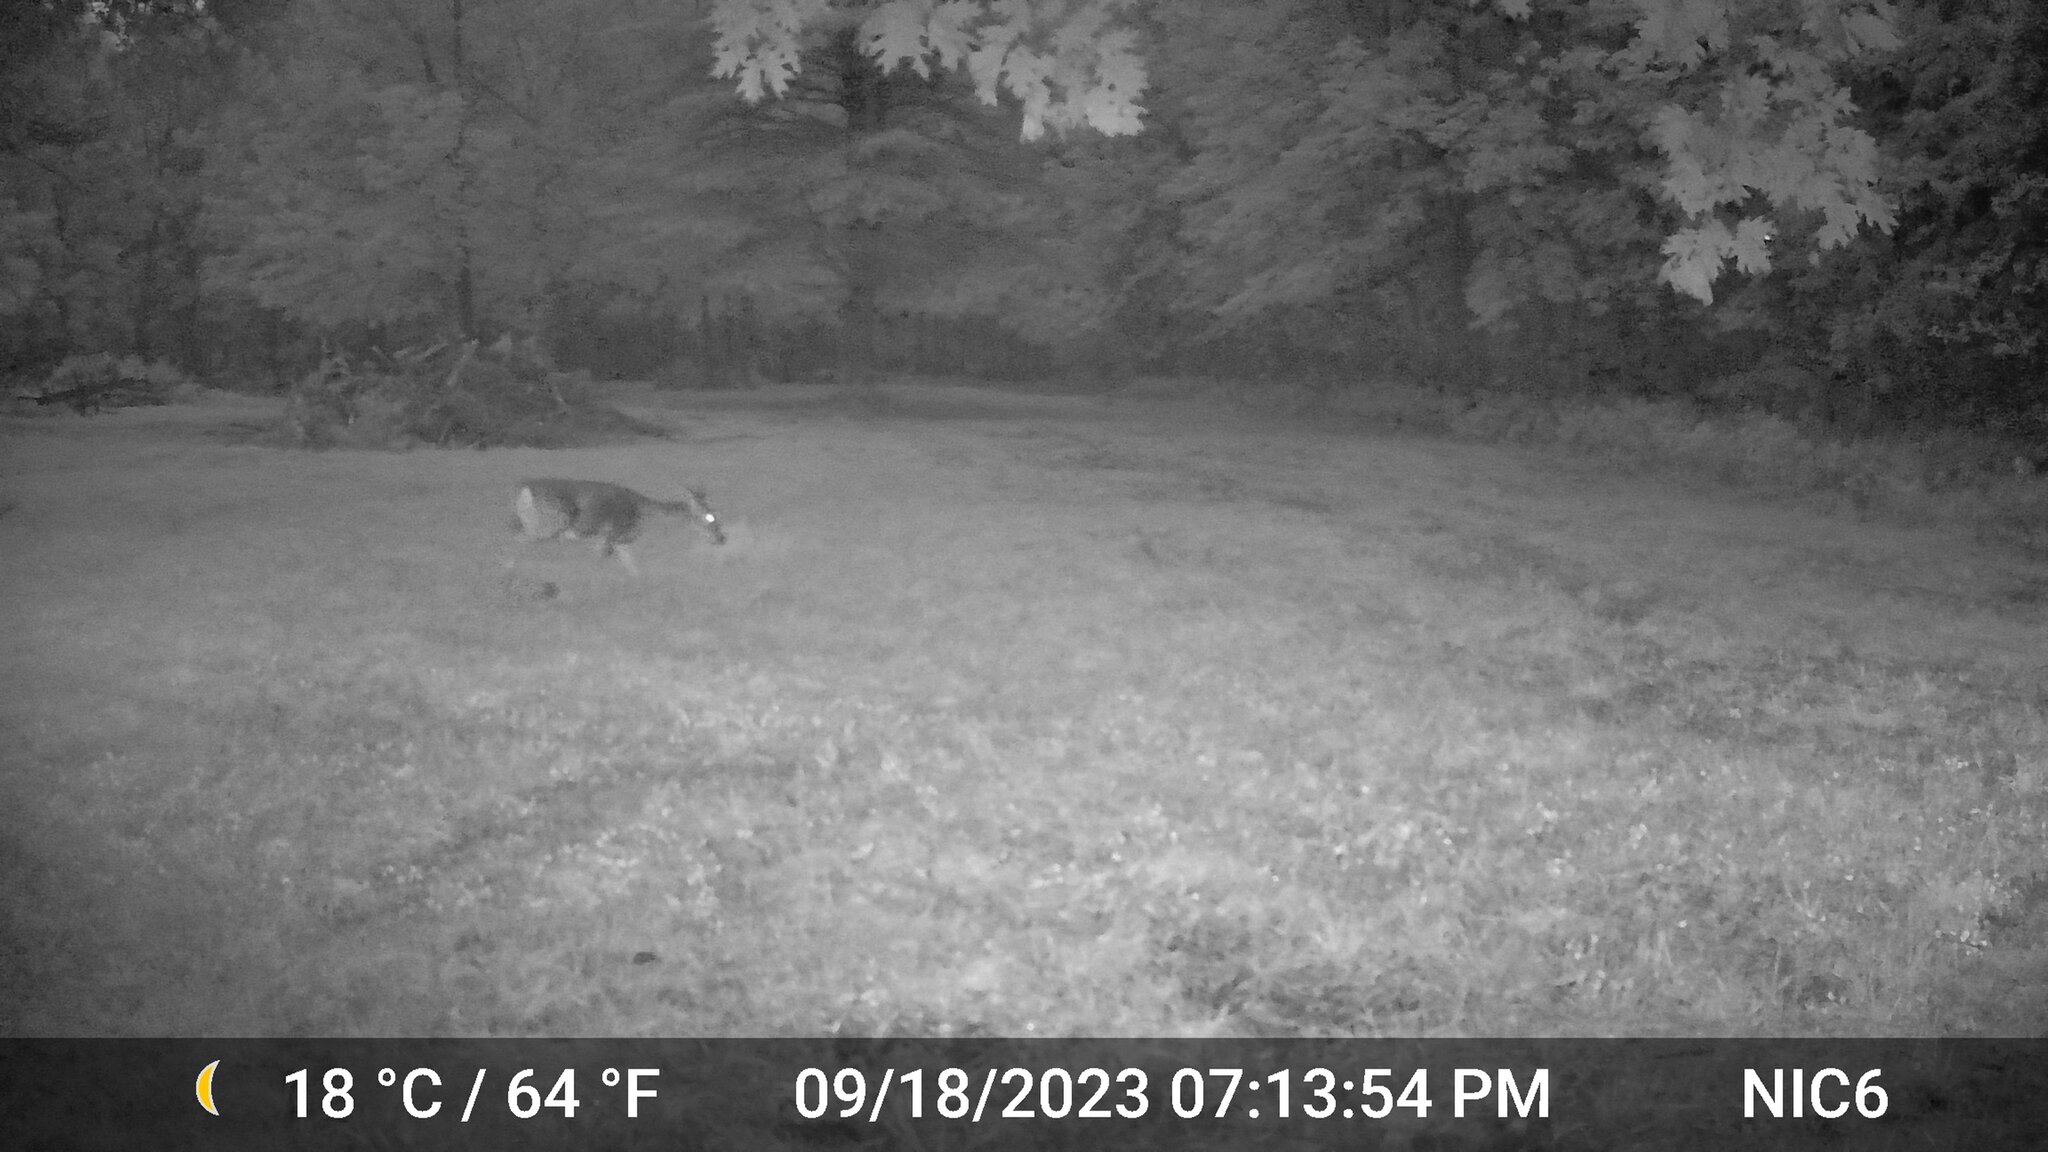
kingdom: Animalia
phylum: Chordata
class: Mammalia
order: Artiodactyla
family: Cervidae
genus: Odocoileus
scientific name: Odocoileus virginianus
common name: White-tailed deer
